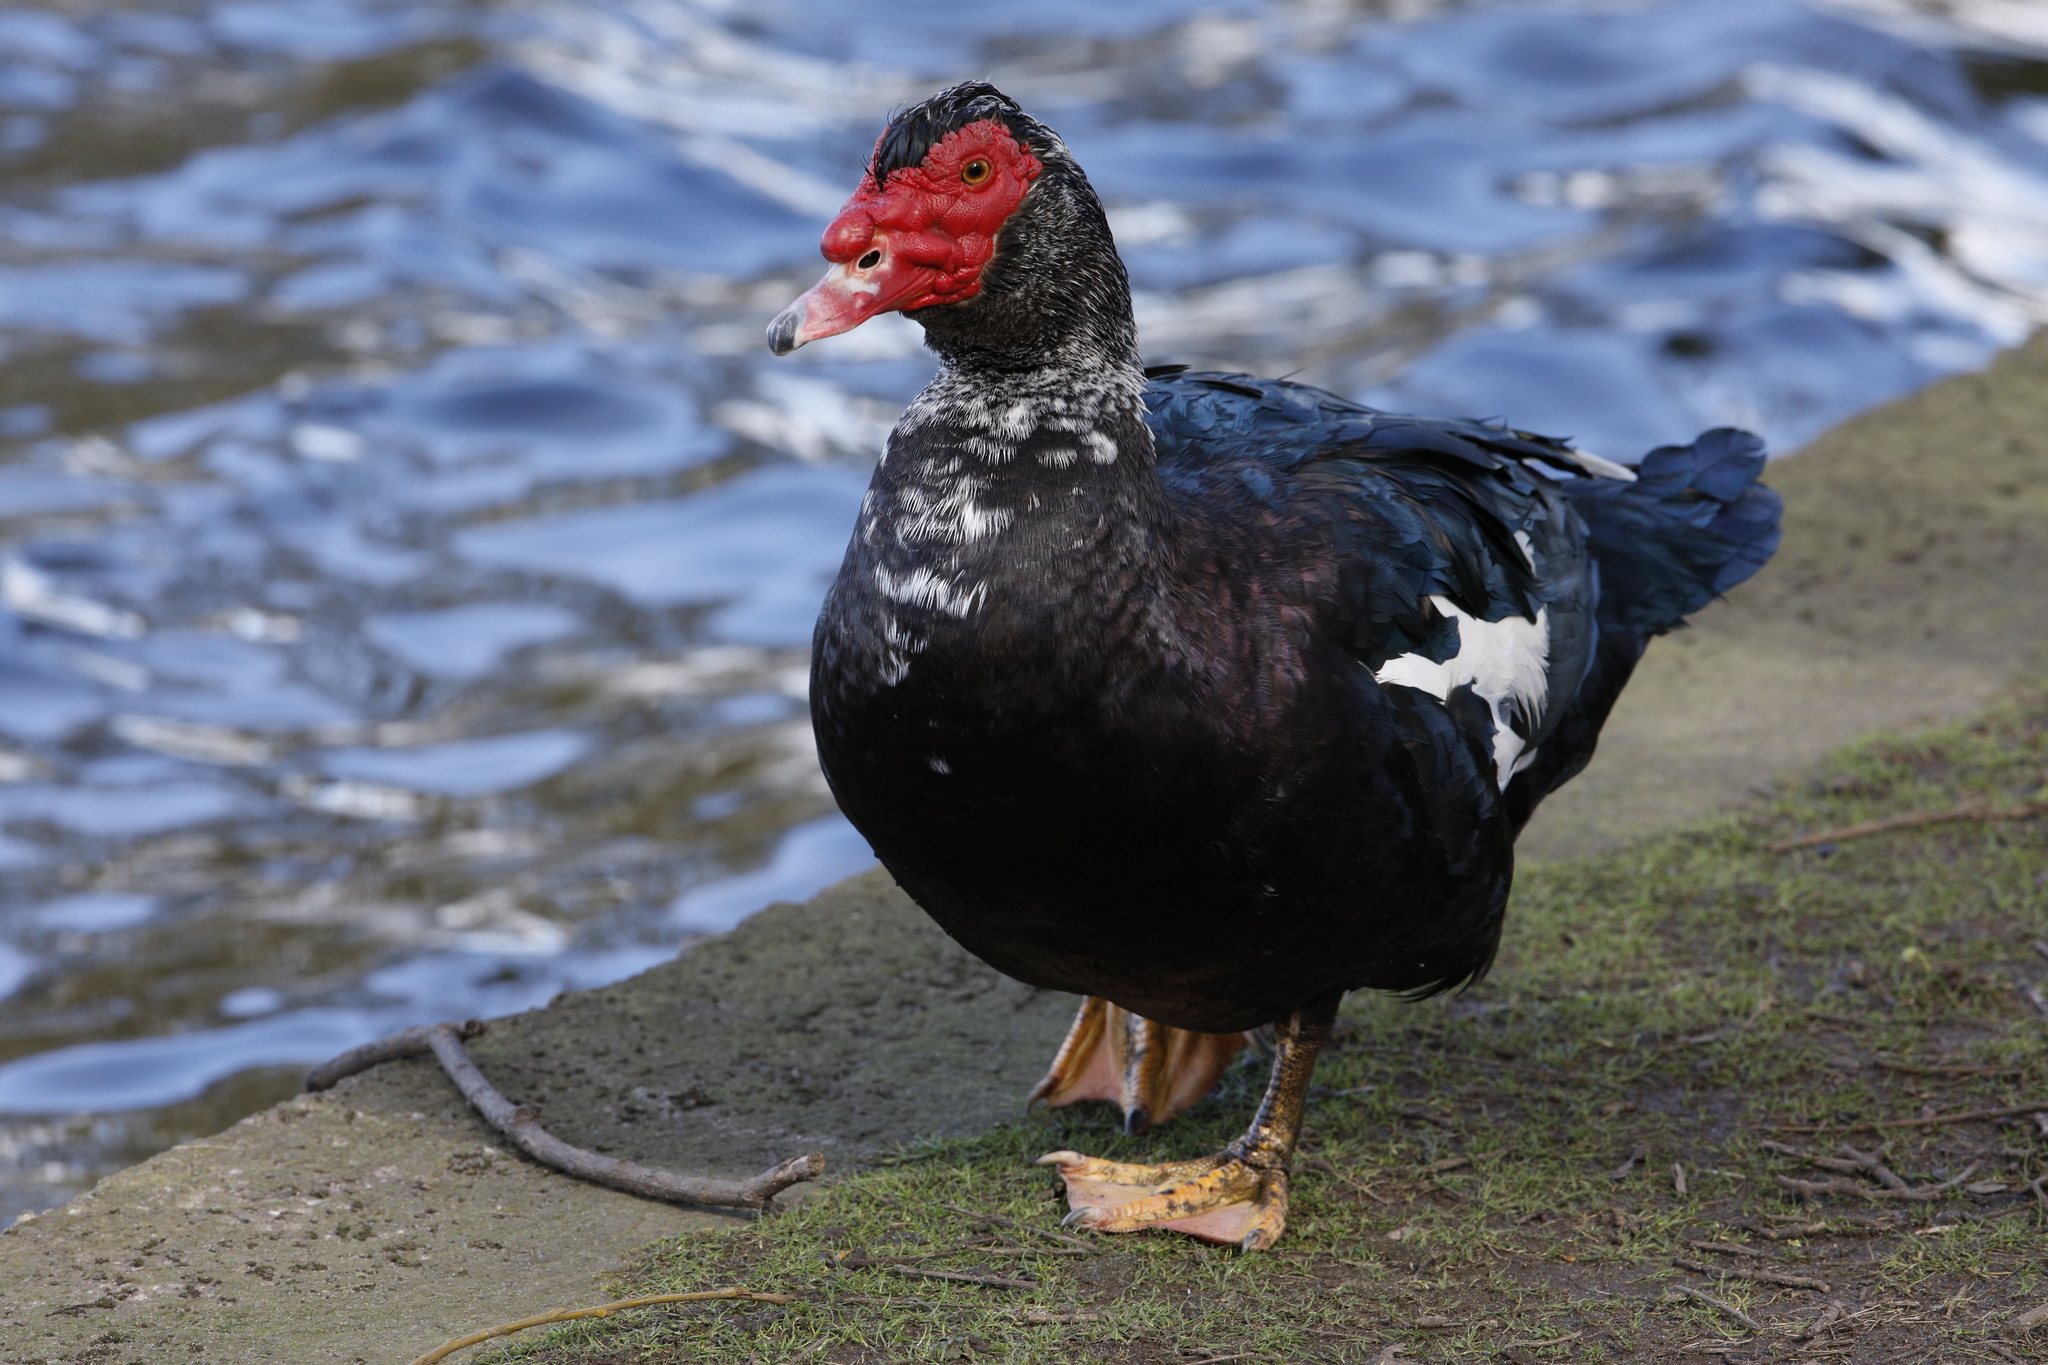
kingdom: Animalia
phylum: Chordata
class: Aves
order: Anseriformes
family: Anatidae
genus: Cairina
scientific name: Cairina moschata
